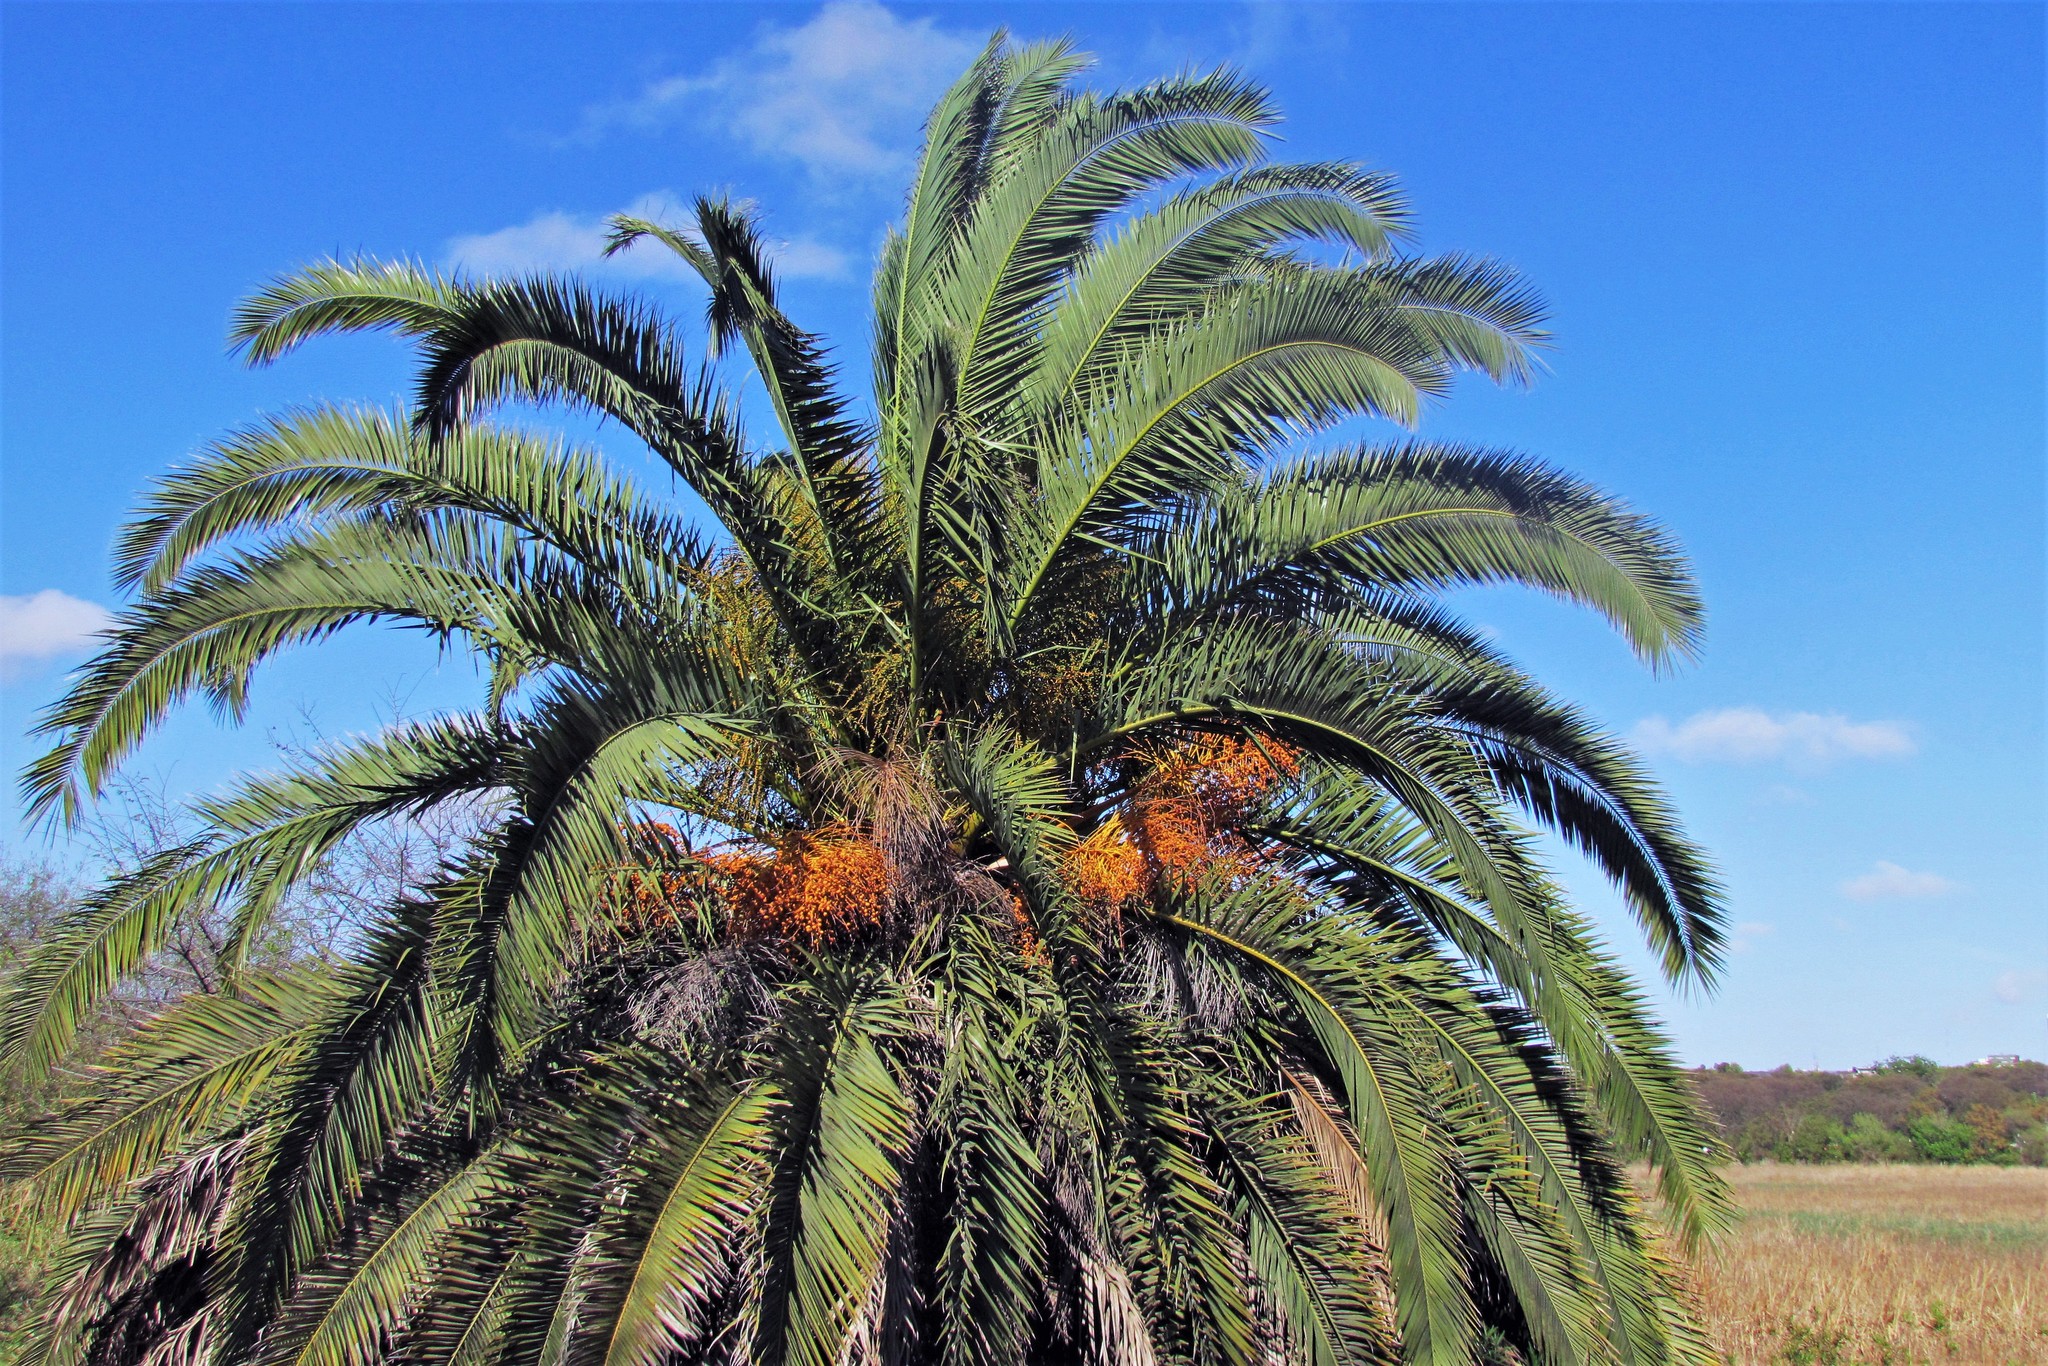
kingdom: Plantae
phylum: Tracheophyta
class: Liliopsida
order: Arecales
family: Arecaceae
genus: Phoenix
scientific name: Phoenix canariensis
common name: Canary island date palm
